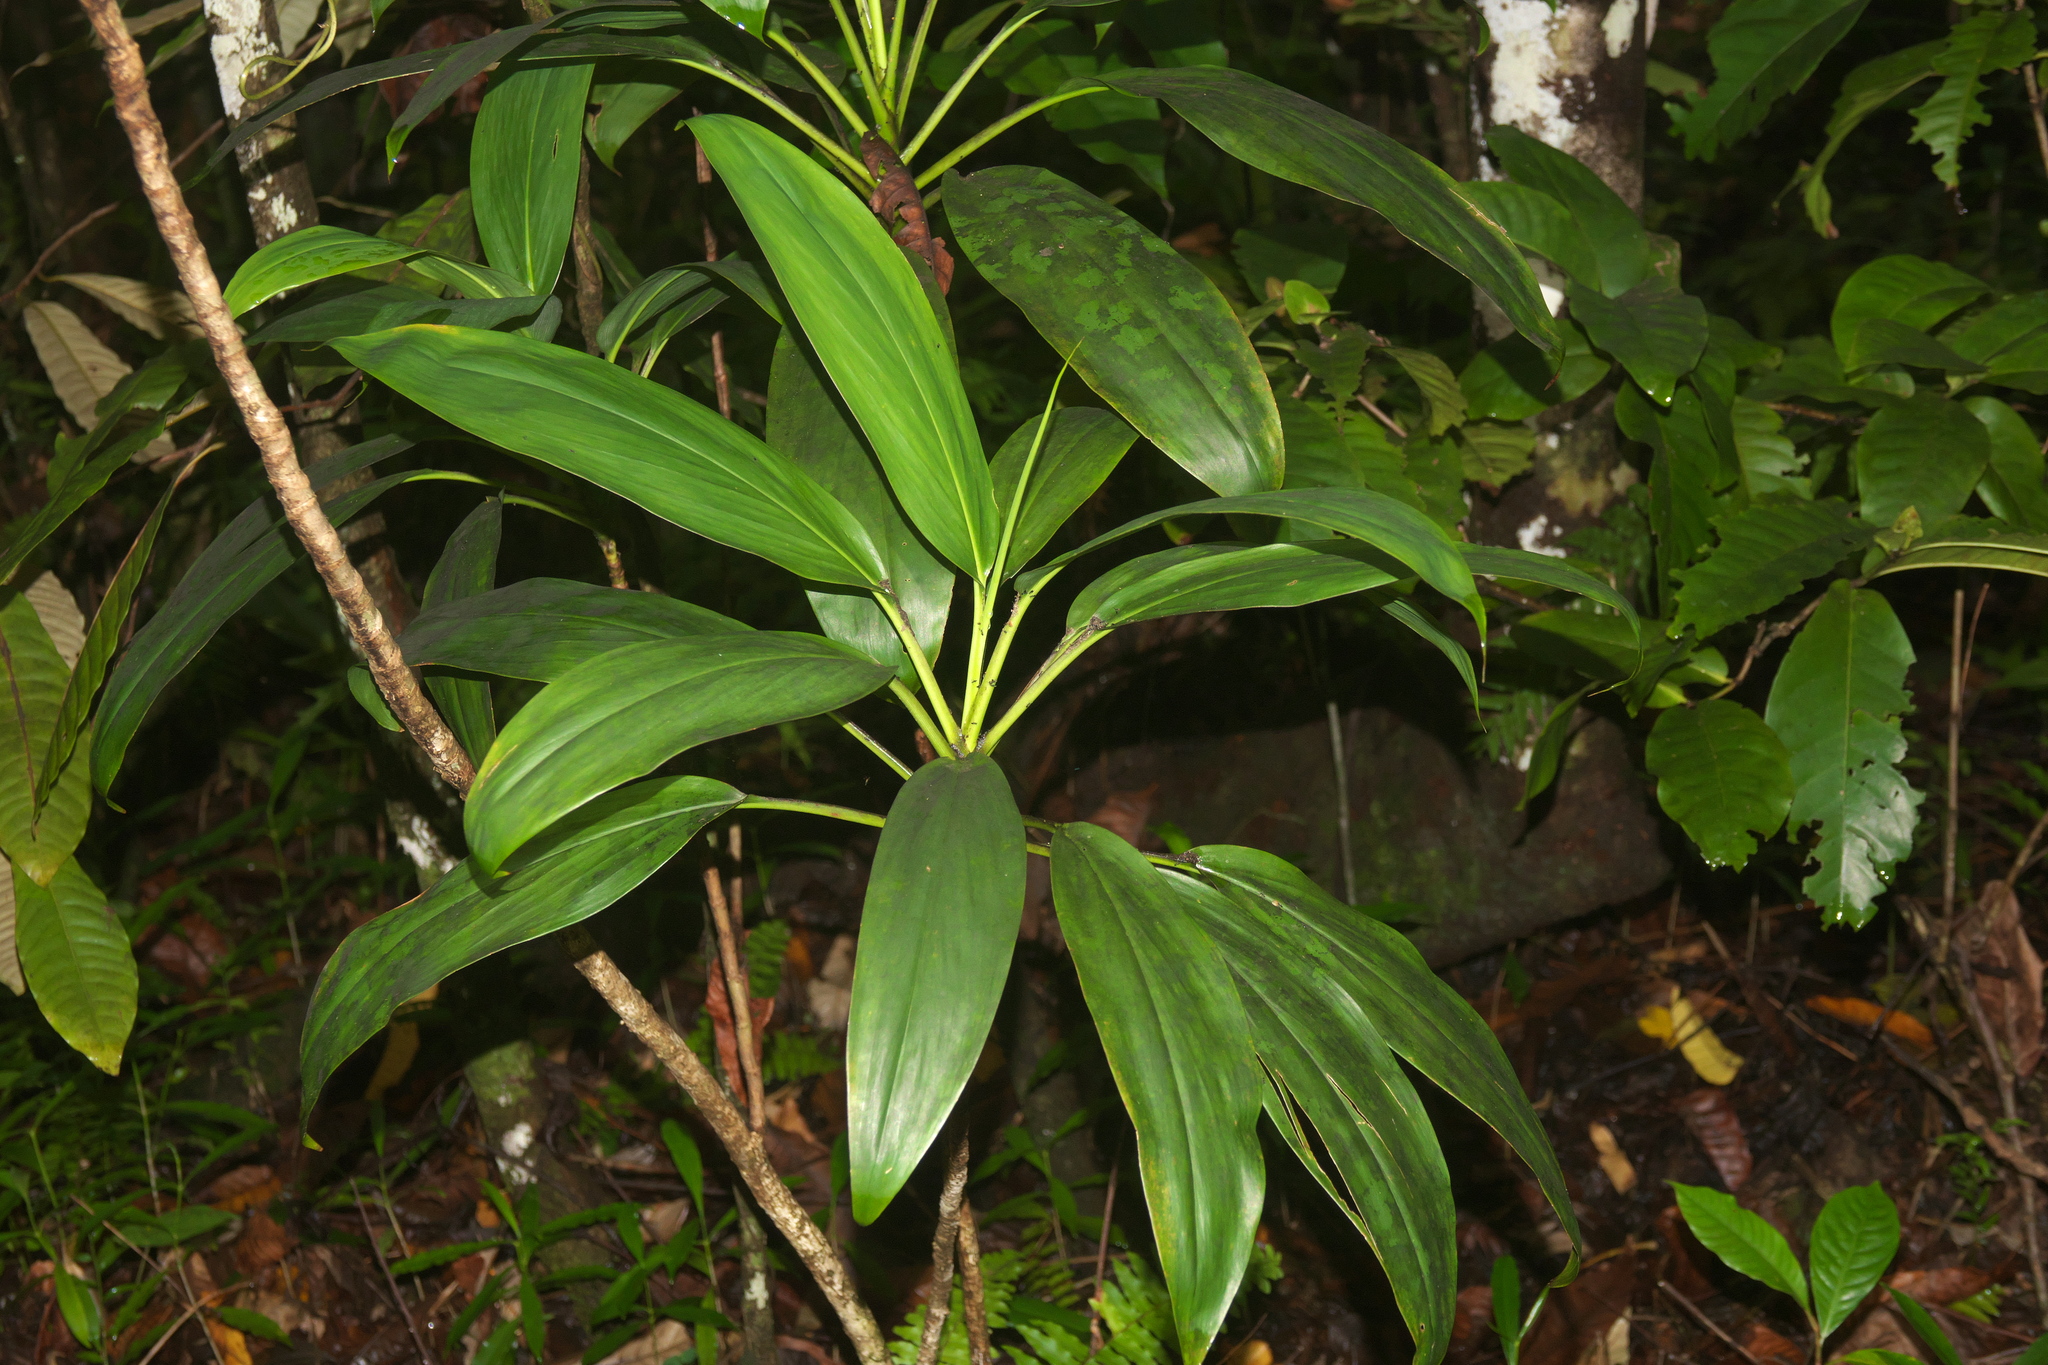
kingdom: Plantae
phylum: Tracheophyta
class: Liliopsida
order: Asparagales
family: Asparagaceae
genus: Cordyline
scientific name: Cordyline fruticosa
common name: Good-luck-plant
